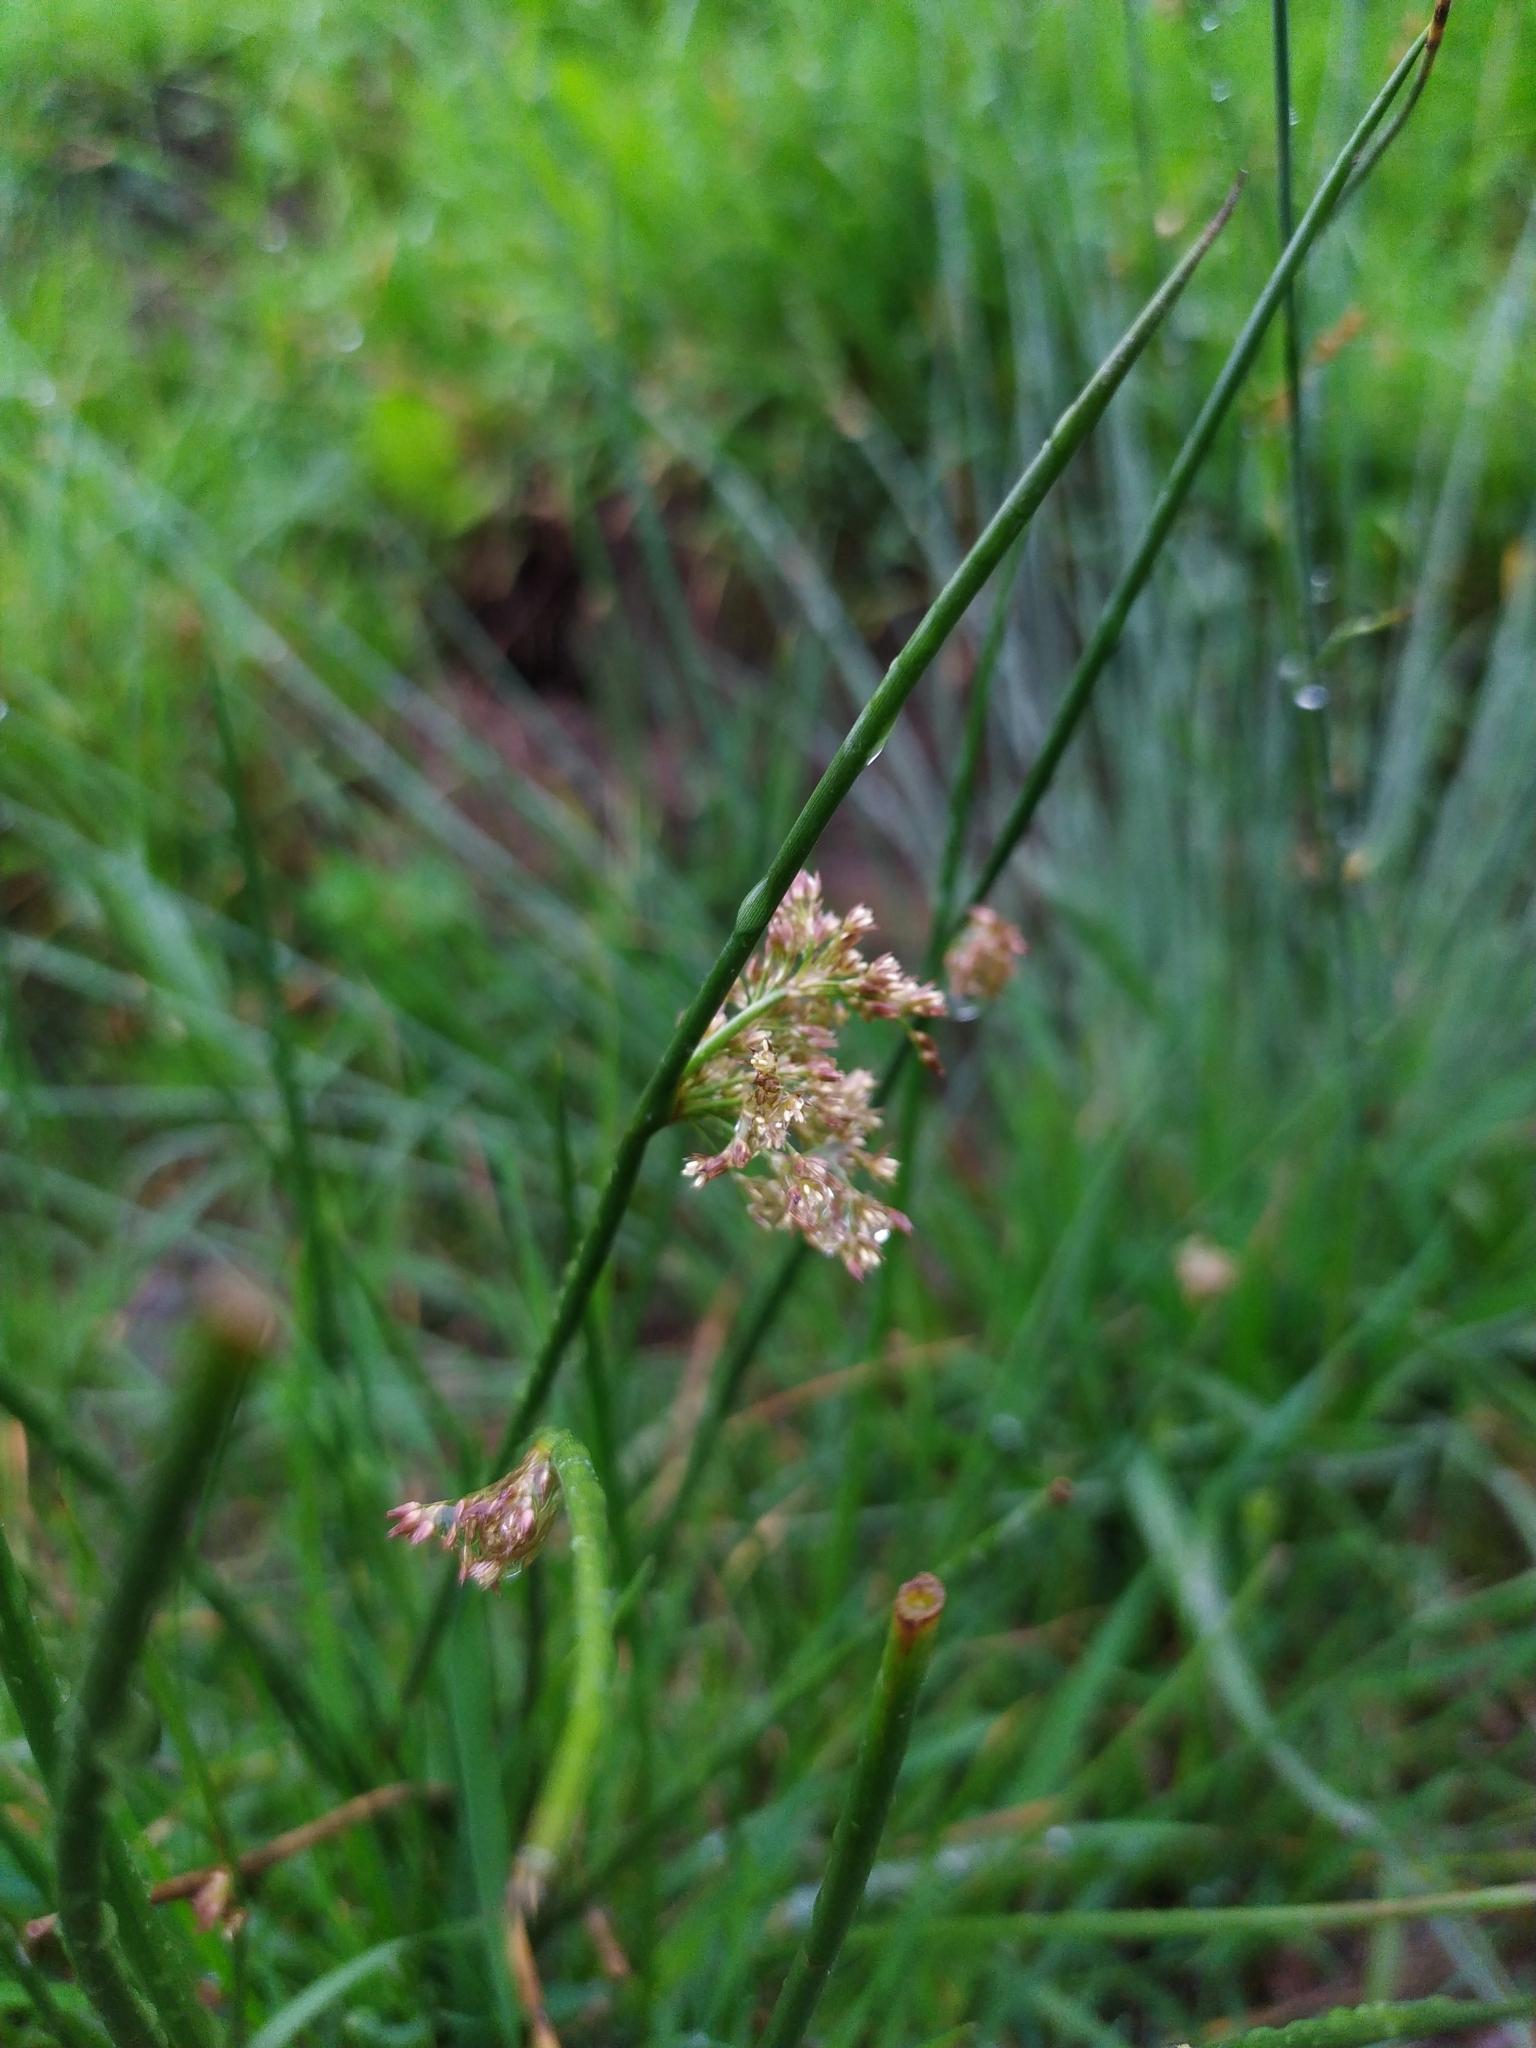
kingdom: Plantae
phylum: Tracheophyta
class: Liliopsida
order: Poales
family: Juncaceae
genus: Juncus
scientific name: Juncus effusus
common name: Soft rush
